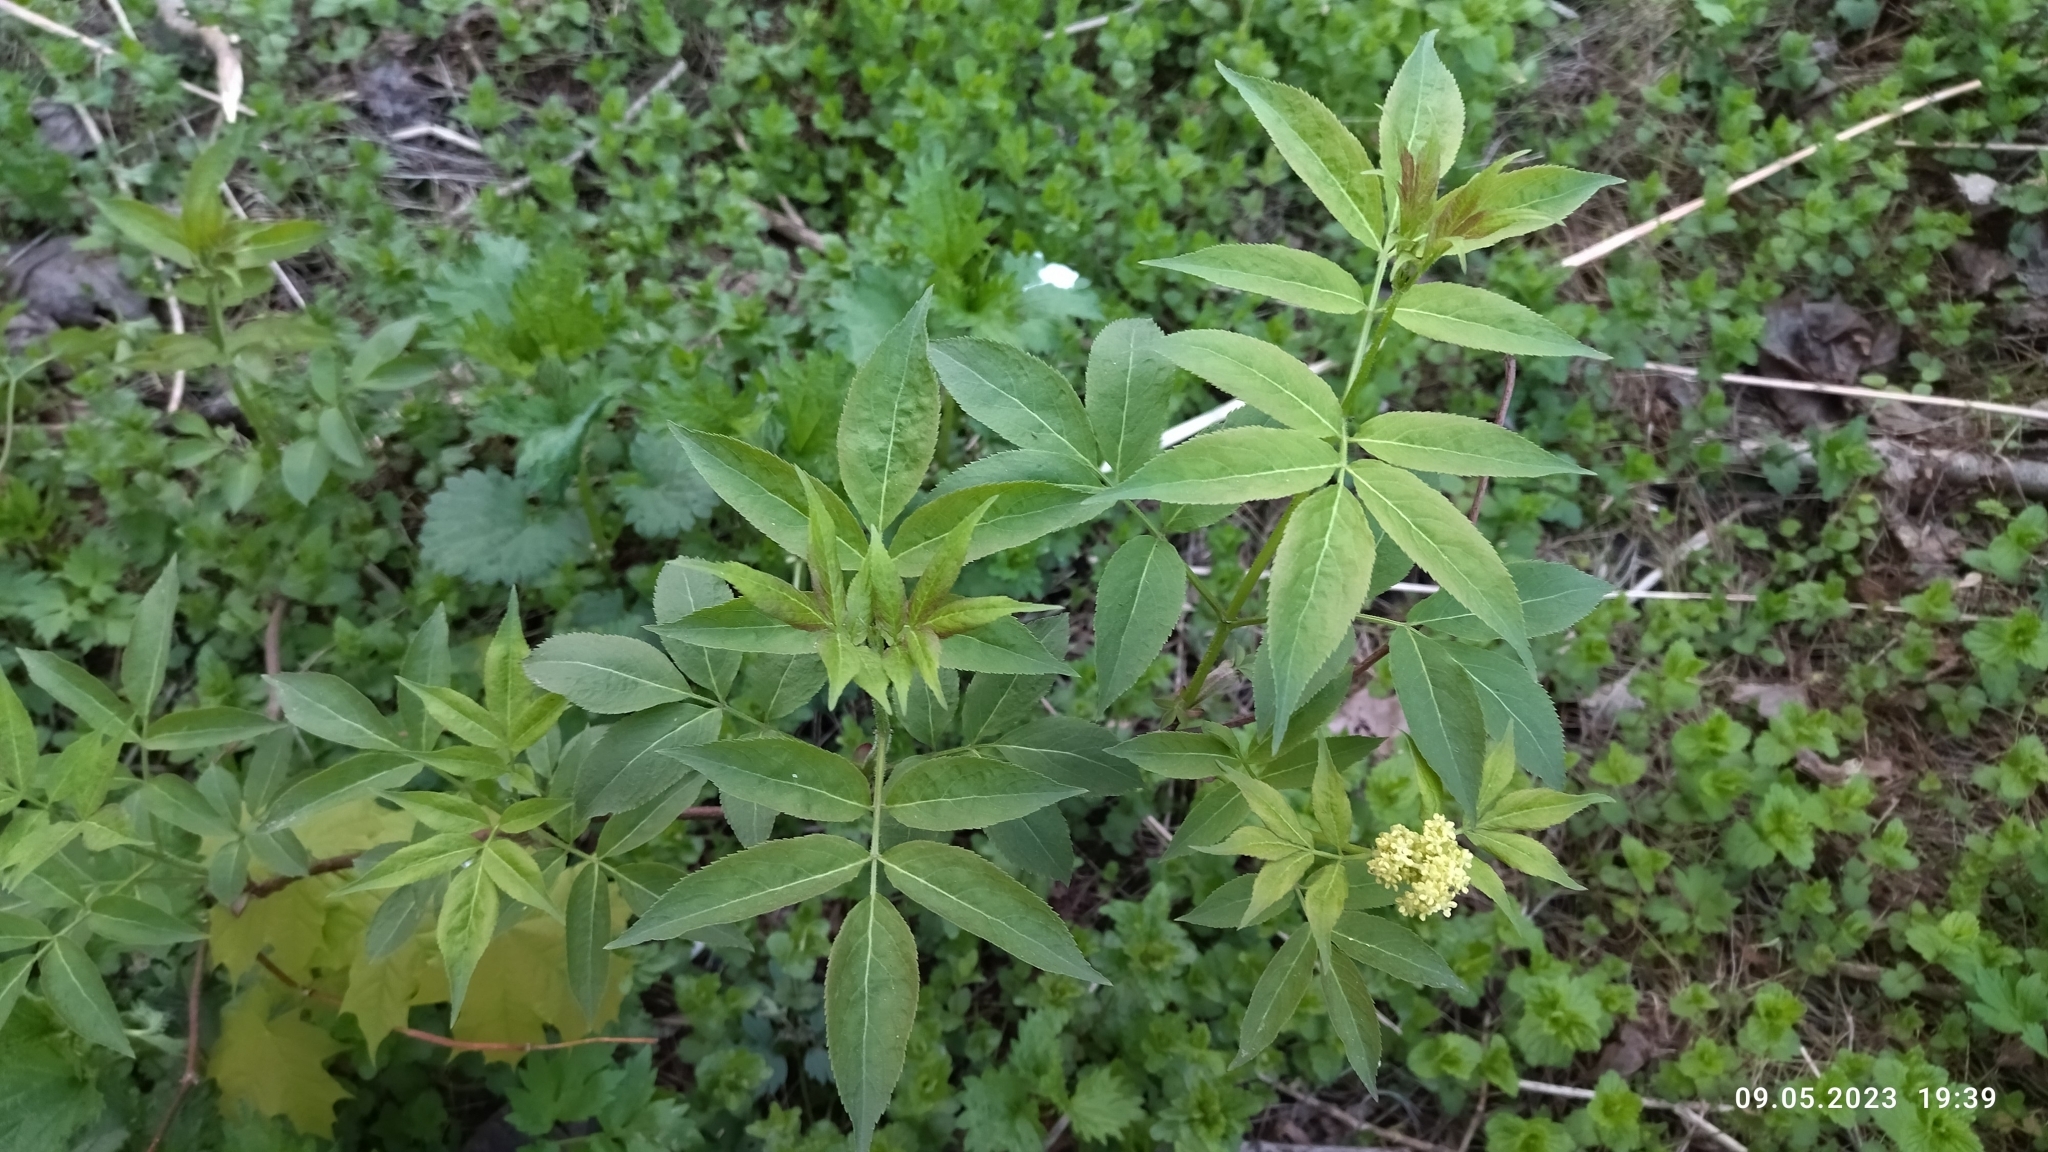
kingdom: Plantae
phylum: Tracheophyta
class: Magnoliopsida
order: Dipsacales
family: Viburnaceae
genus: Sambucus
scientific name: Sambucus racemosa
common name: Red-berried elder
